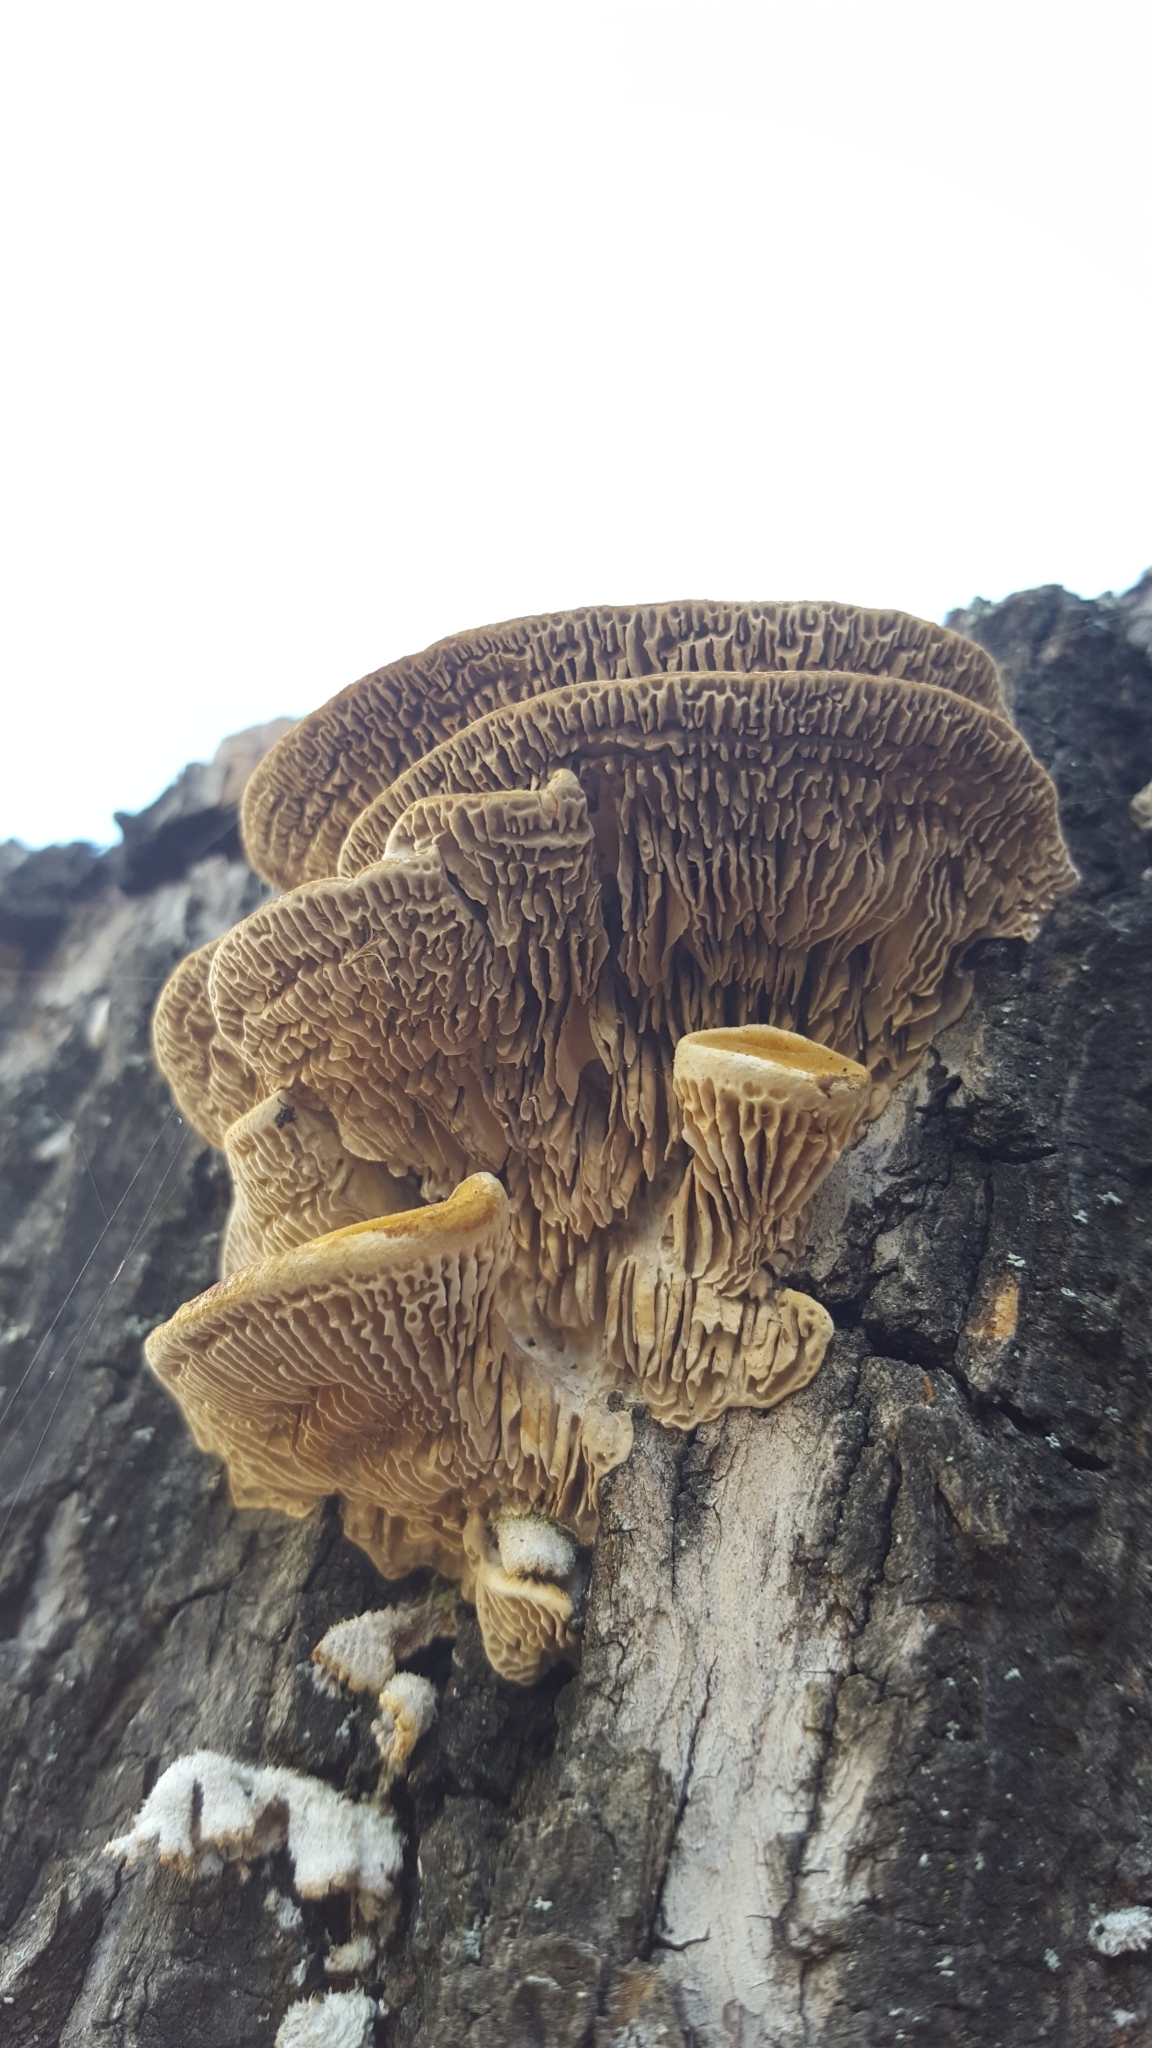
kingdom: Fungi
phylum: Basidiomycota
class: Agaricomycetes
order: Polyporales
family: Polyporaceae
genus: Trametes
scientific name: Trametes hirsuta
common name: Hairy bracket
